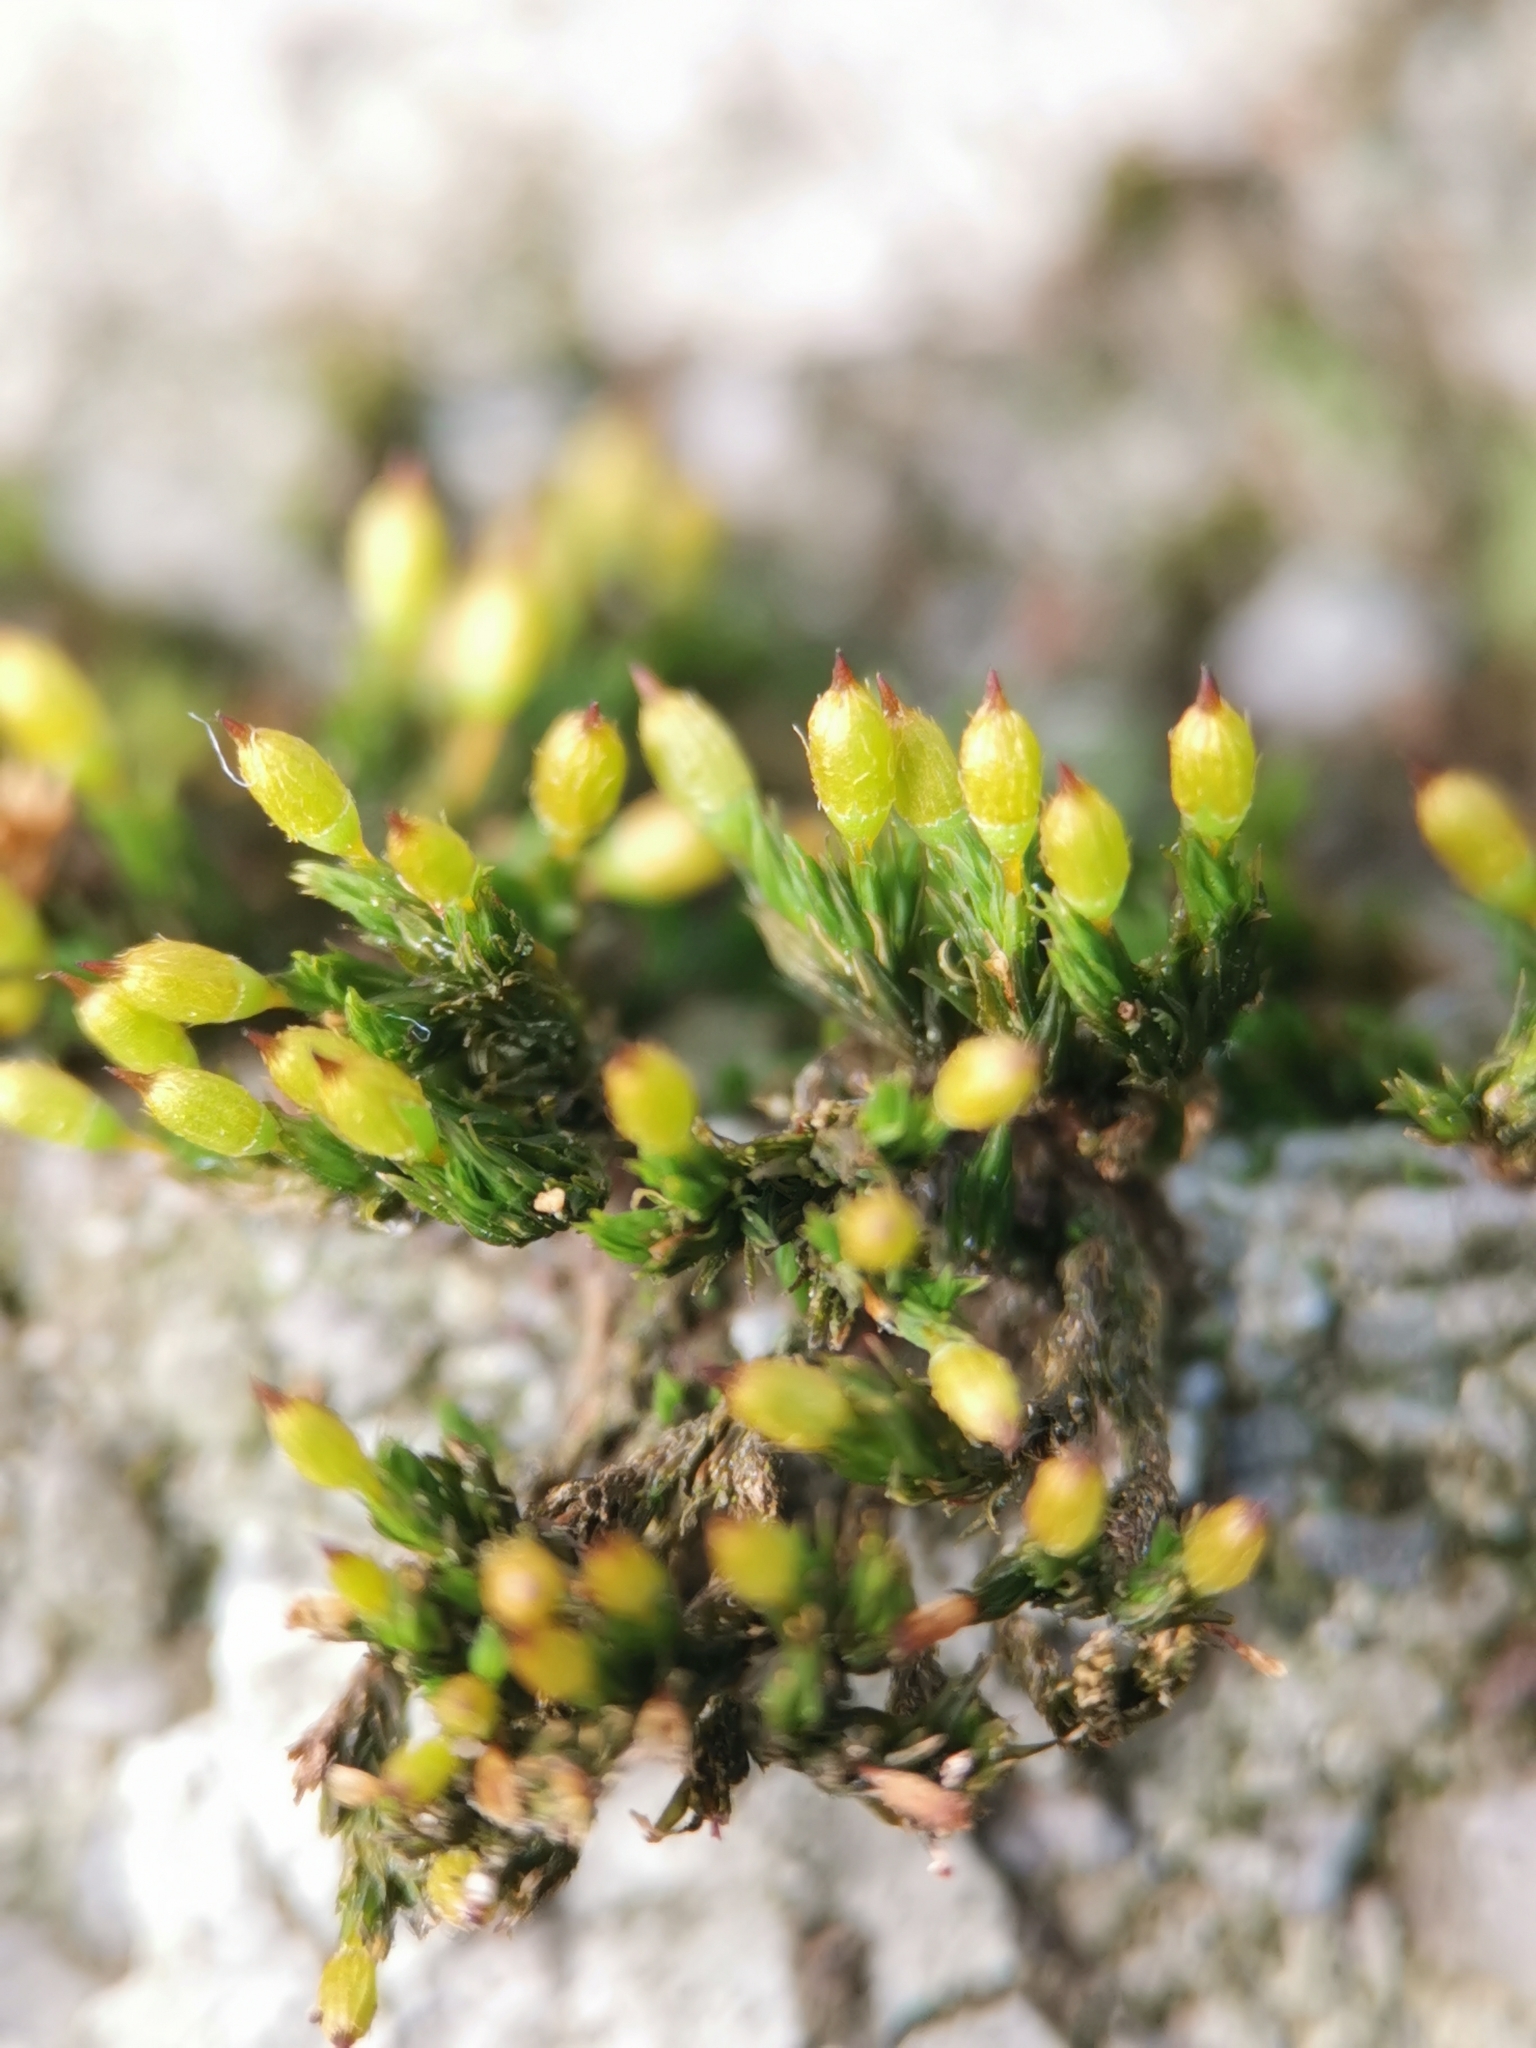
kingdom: Plantae
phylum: Bryophyta
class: Bryopsida
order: Orthotrichales
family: Orthotrichaceae
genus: Orthotrichum
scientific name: Orthotrichum anomalum
